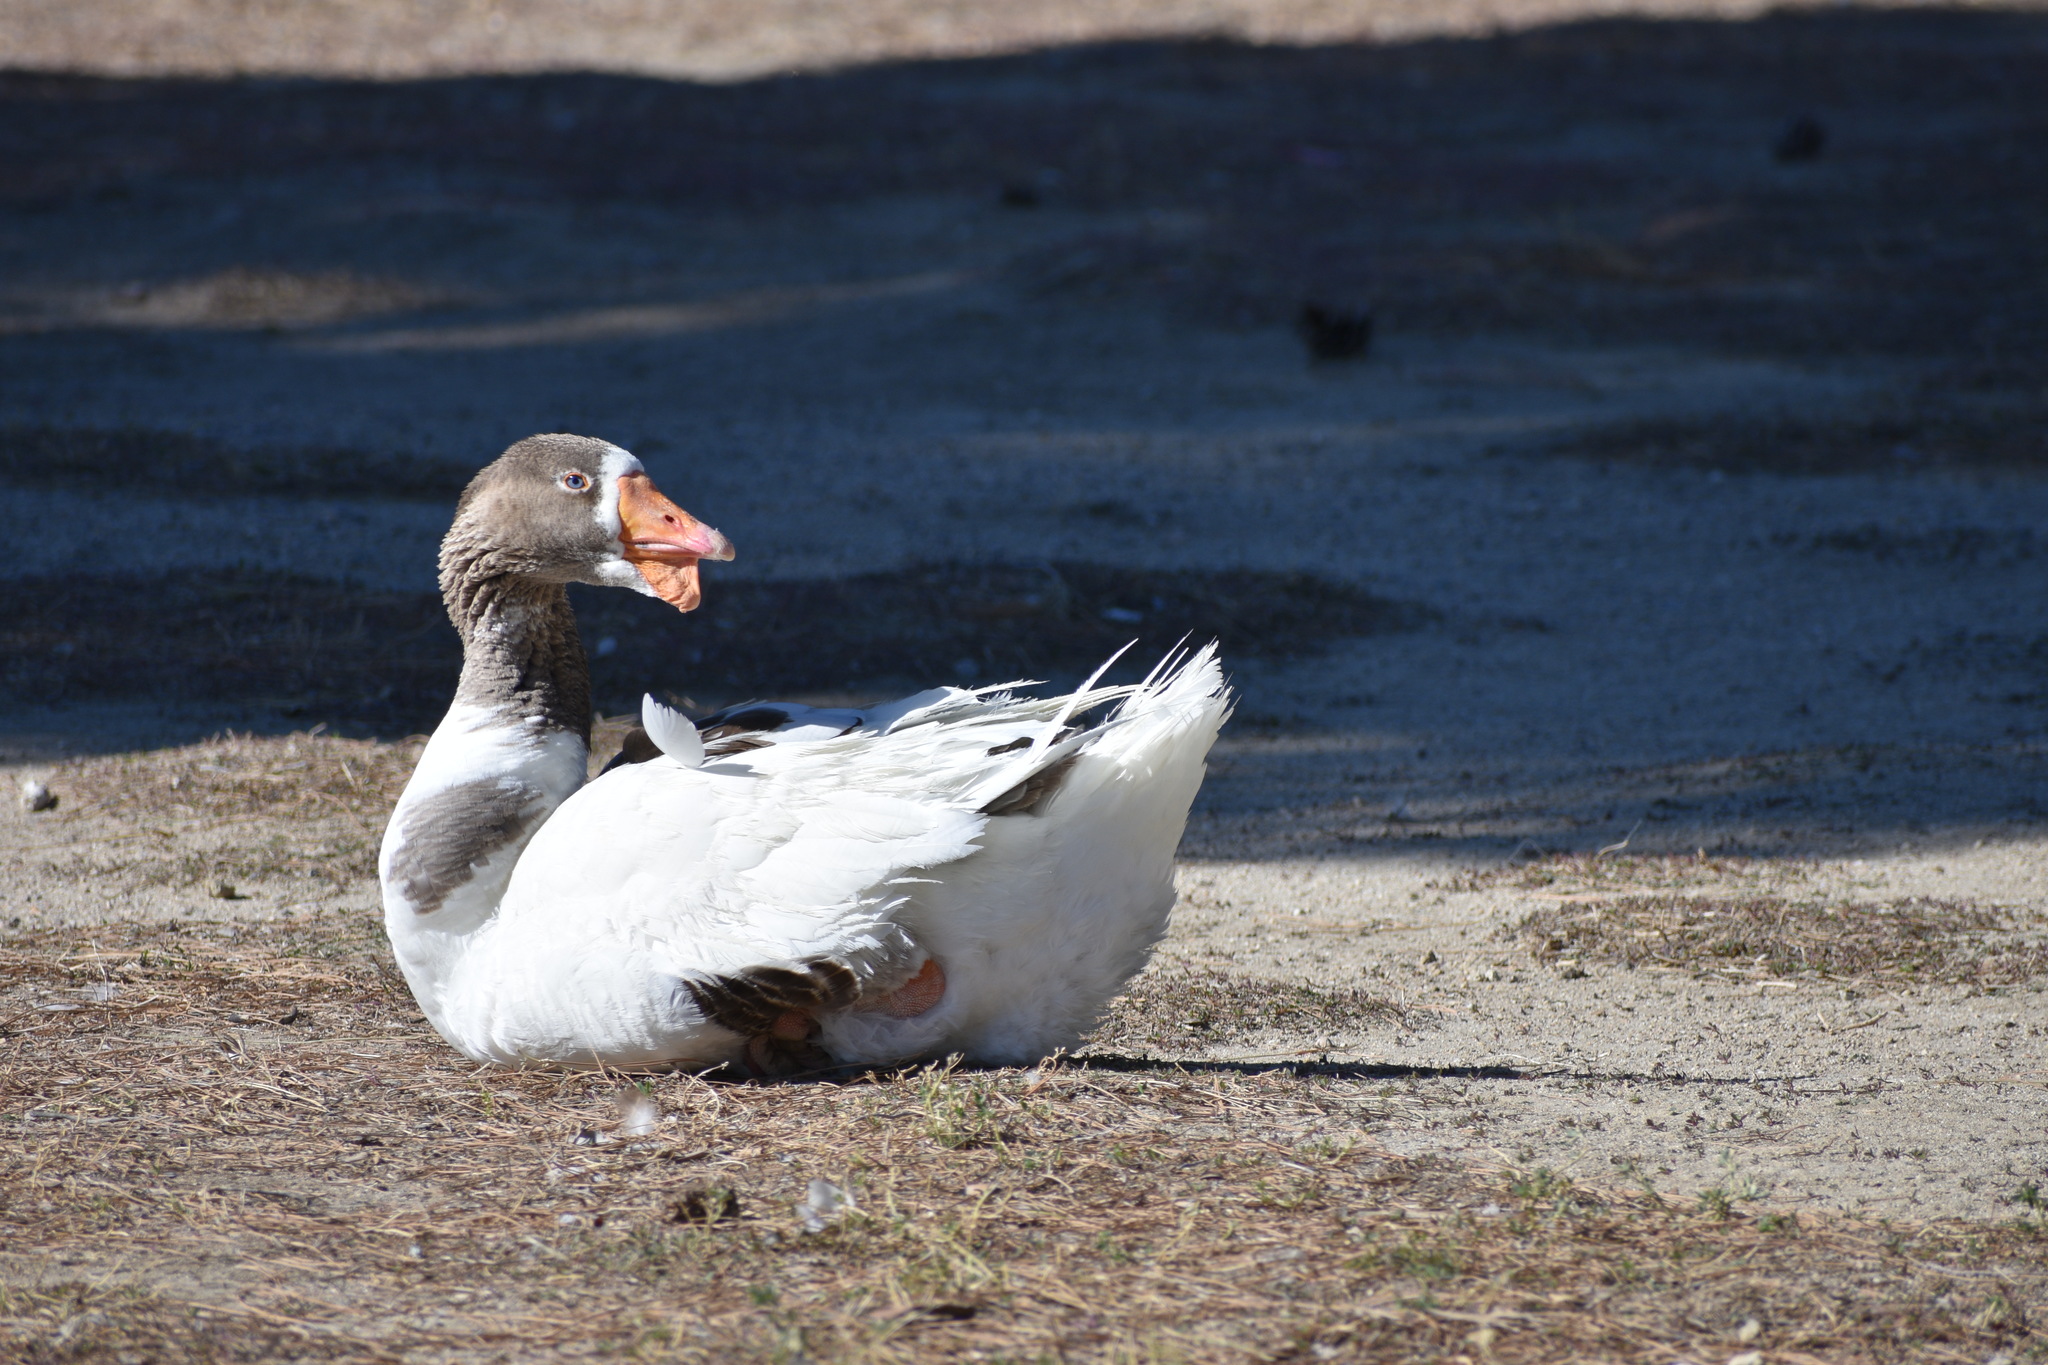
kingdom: Animalia
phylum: Chordata
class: Aves
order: Anseriformes
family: Anatidae
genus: Anser
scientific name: Anser
